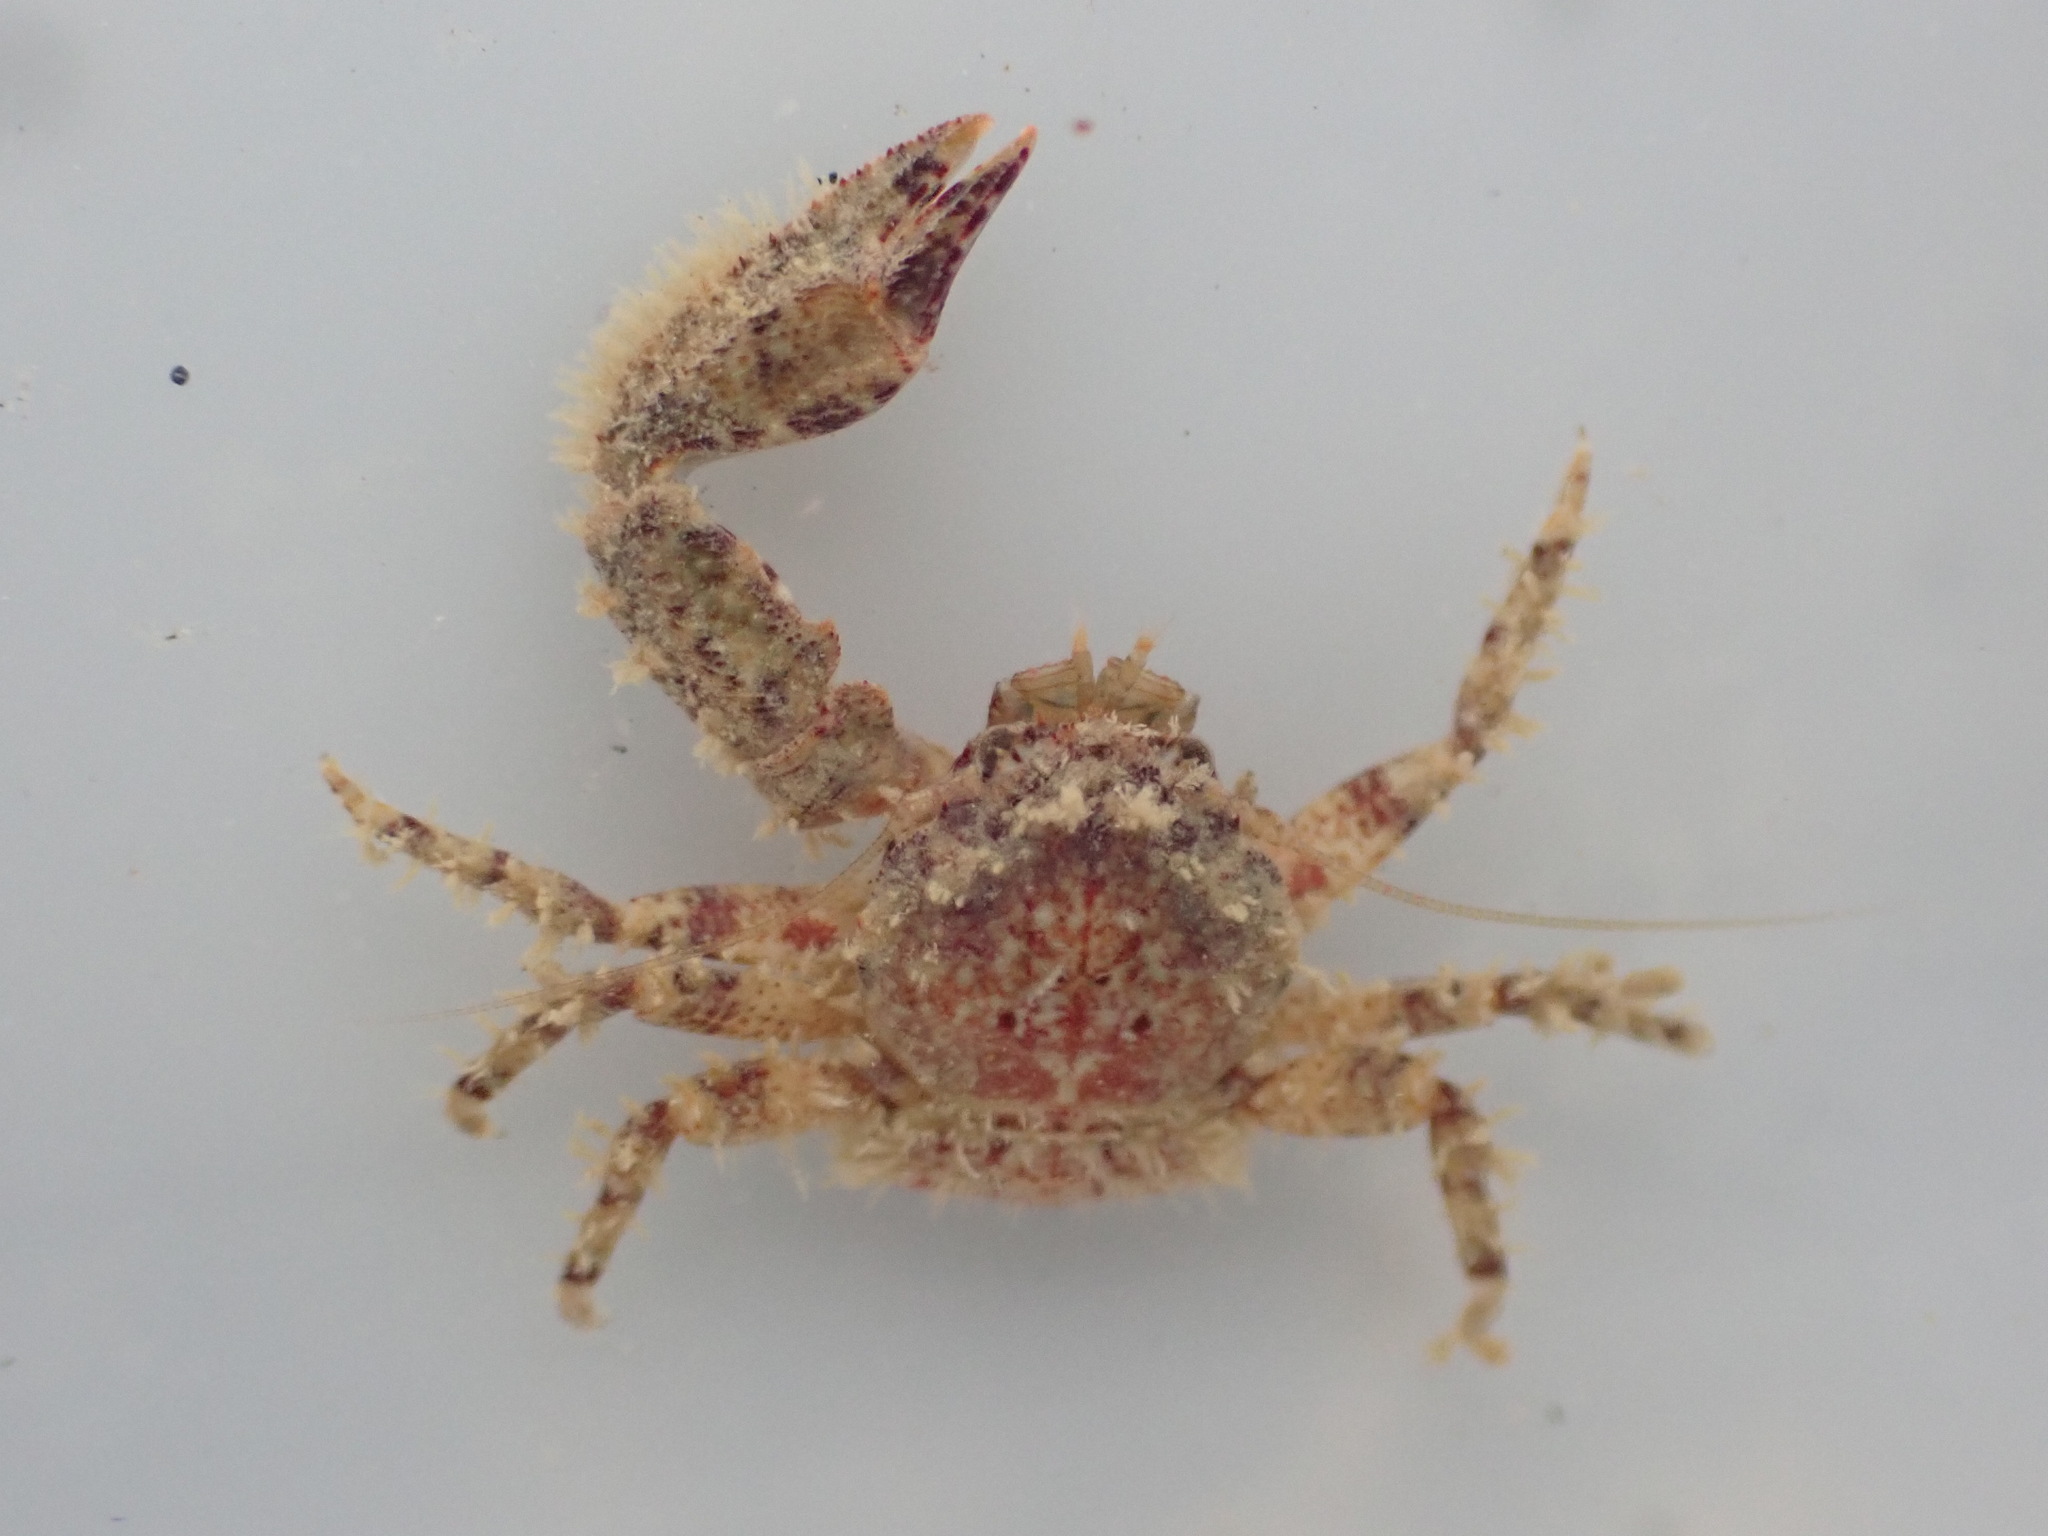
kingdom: Animalia
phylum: Arthropoda
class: Malacostraca
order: Decapoda
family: Porcellanidae
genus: Petrolisthes
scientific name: Petrolisthes novaezelandiae
